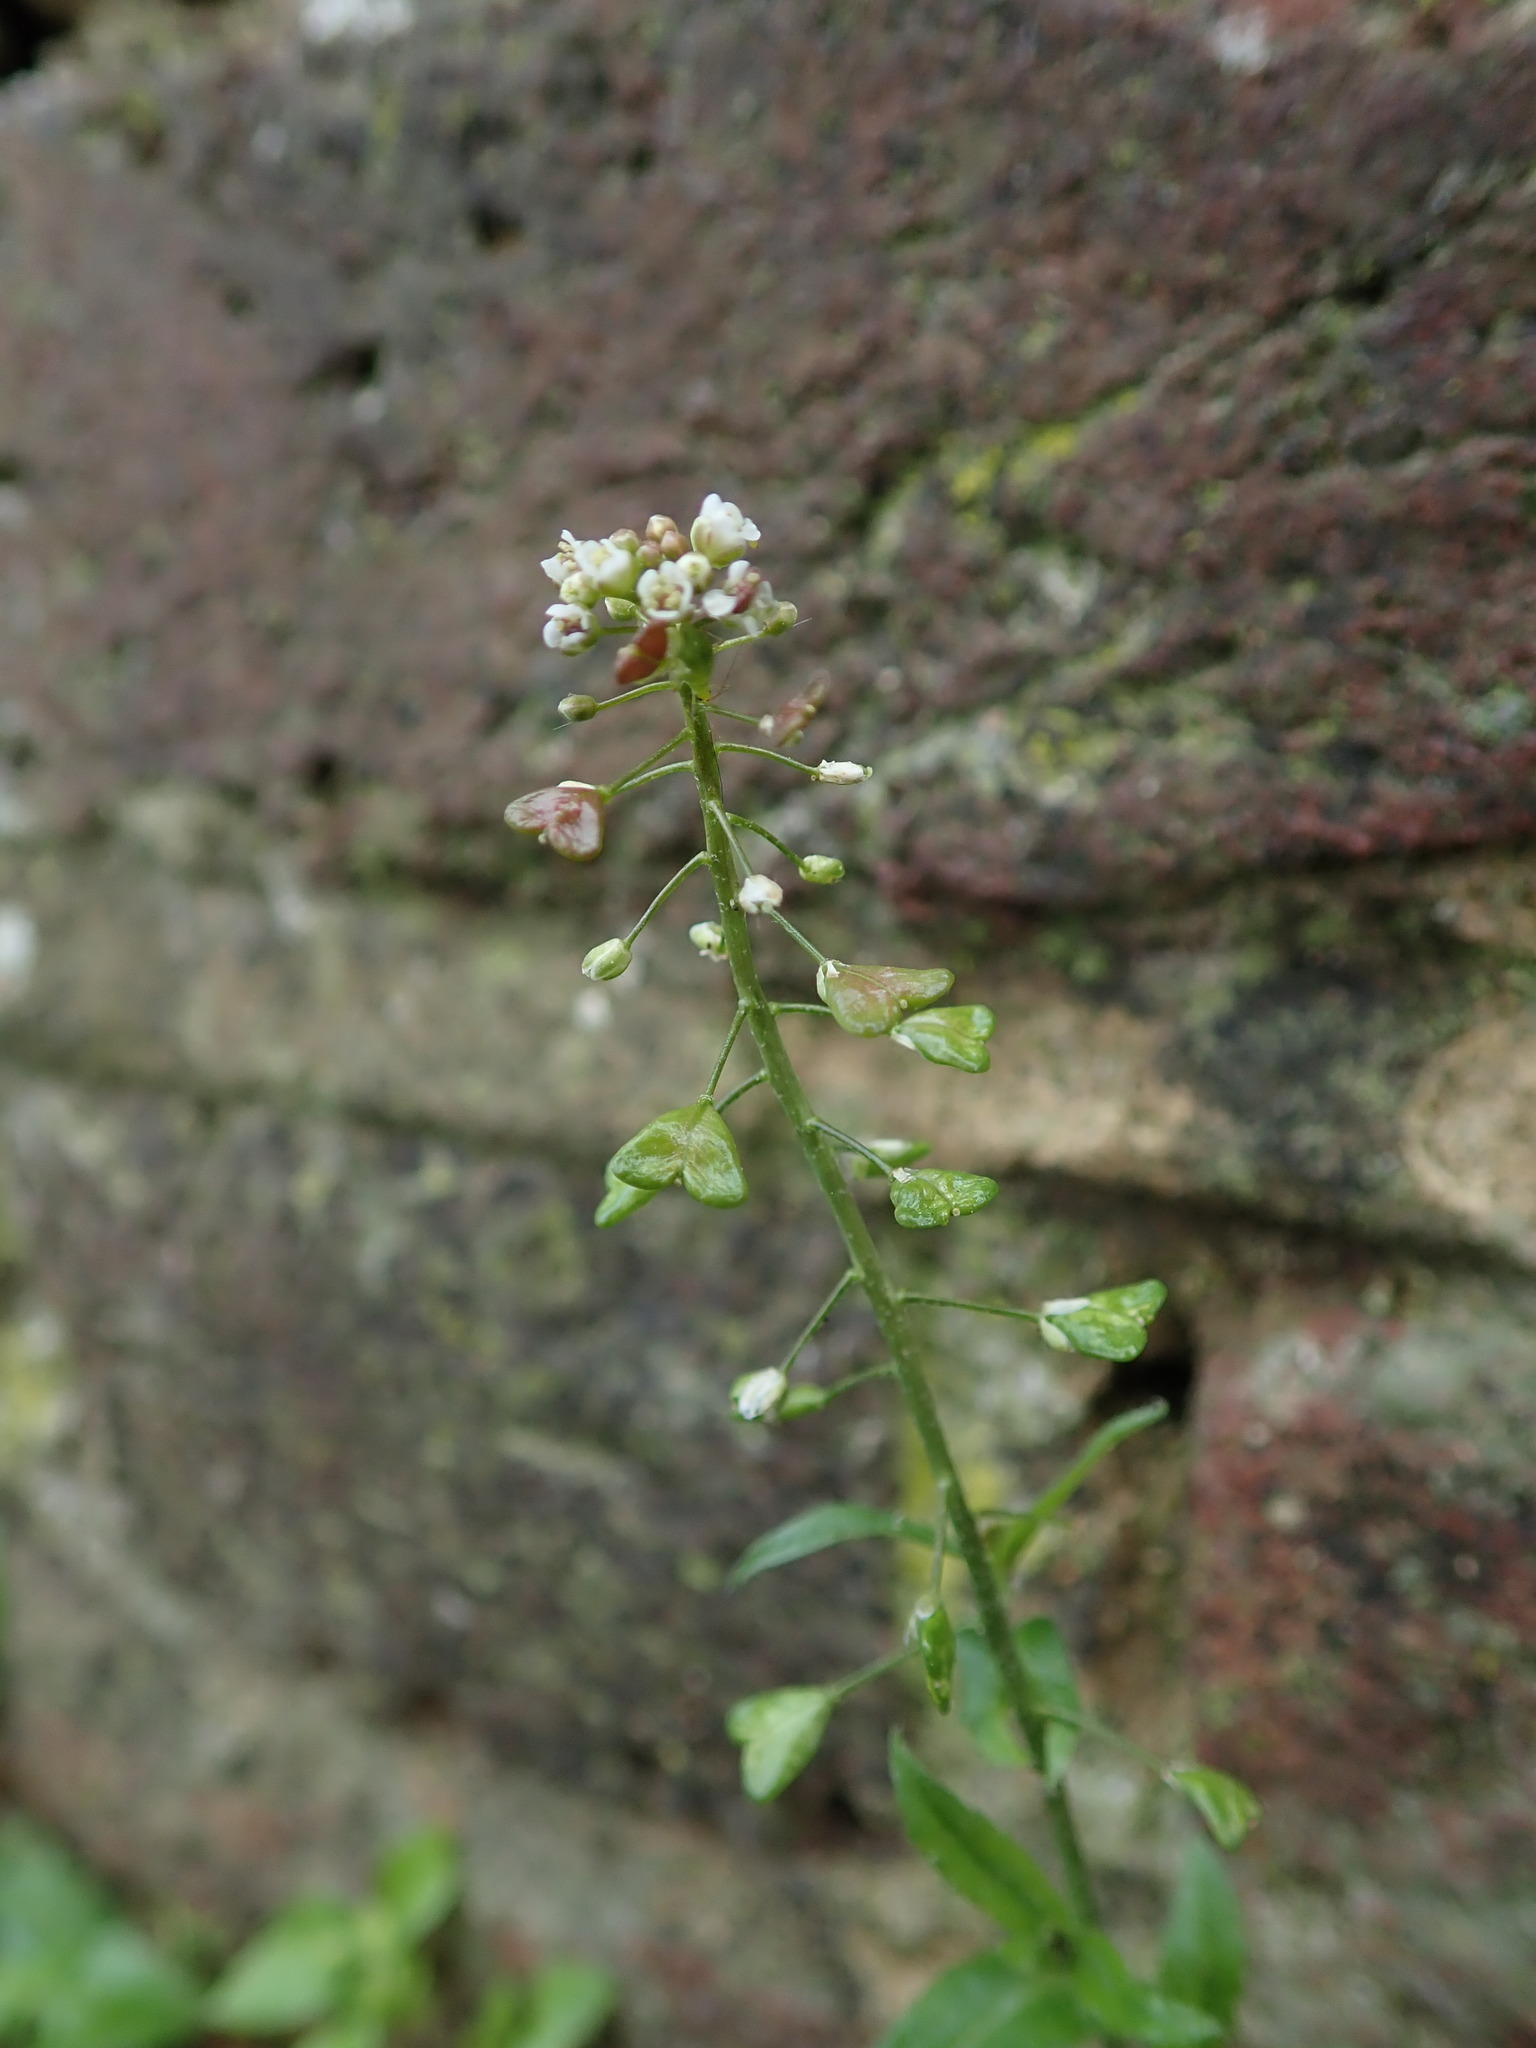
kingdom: Plantae
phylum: Tracheophyta
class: Magnoliopsida
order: Brassicales
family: Brassicaceae
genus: Capsella
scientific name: Capsella bursa-pastoris
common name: Shepherd's purse
